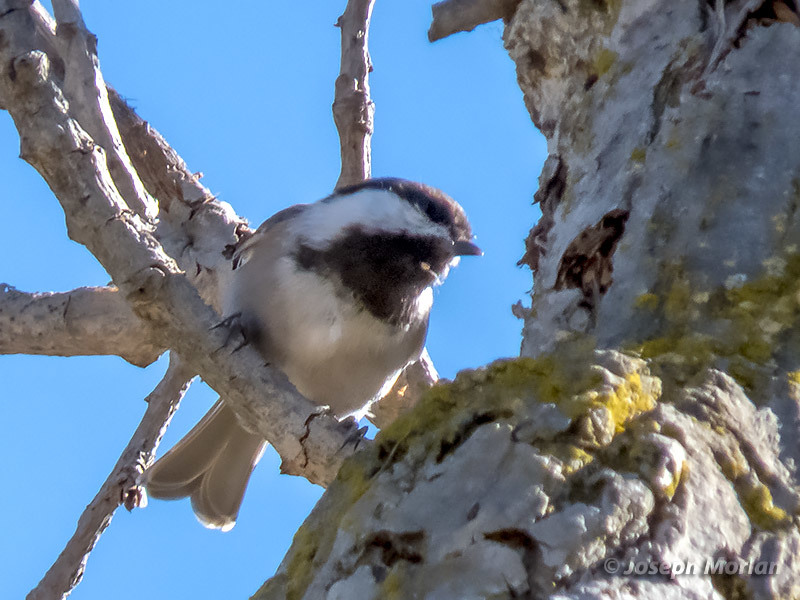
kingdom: Animalia
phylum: Chordata
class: Aves
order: Passeriformes
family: Paridae
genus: Poecile
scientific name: Poecile rufescens
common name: Chestnut-backed chickadee
